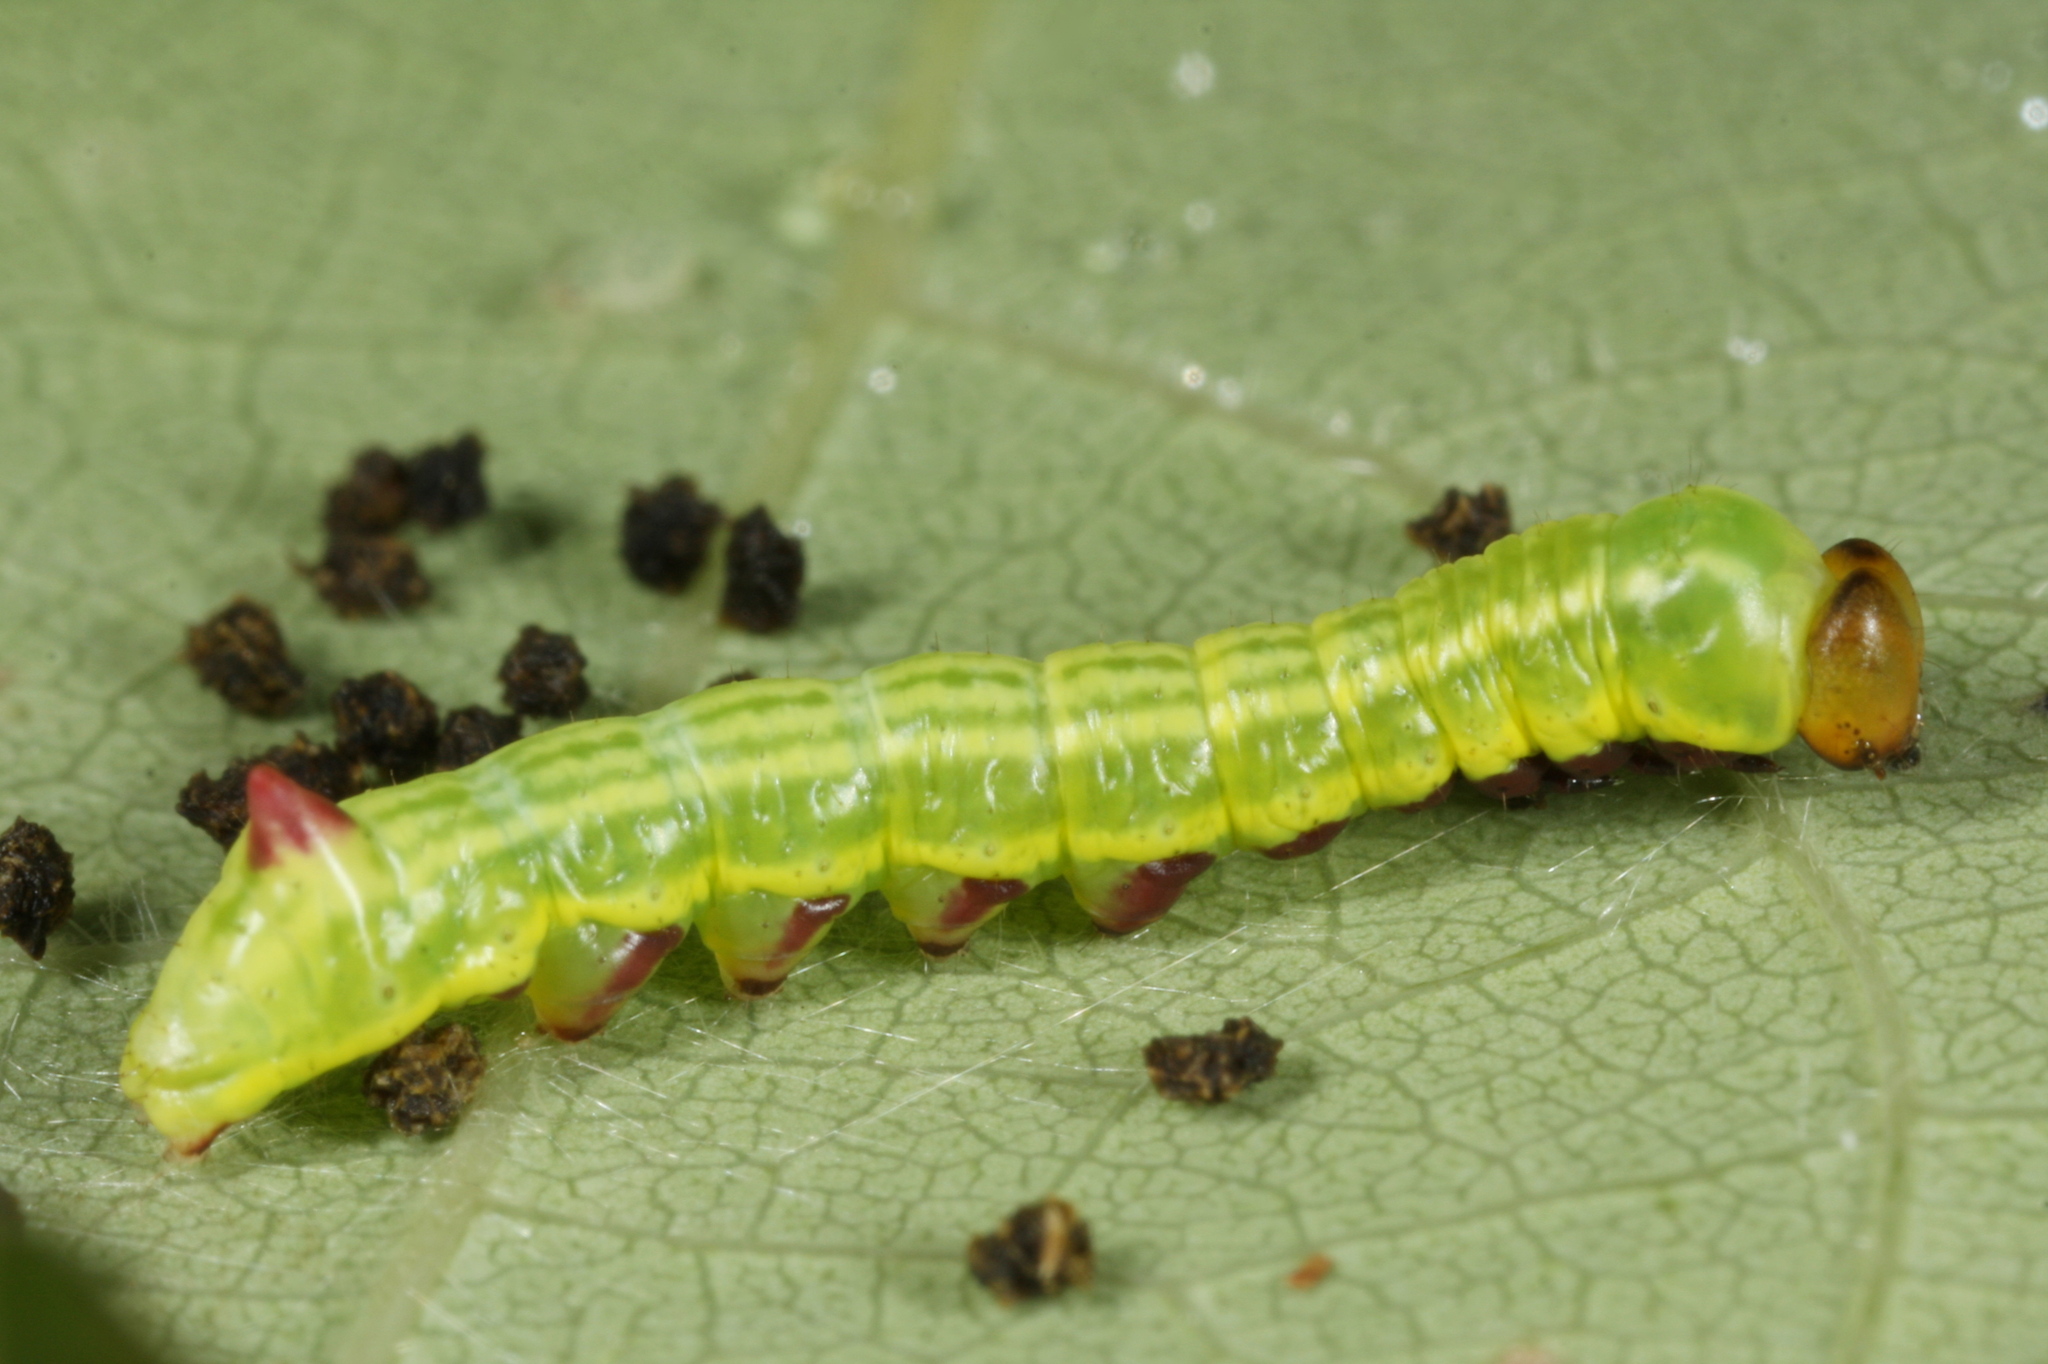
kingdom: Animalia
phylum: Arthropoda
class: Insecta
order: Lepidoptera
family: Notodontidae
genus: Pheosia
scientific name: Pheosia tremula
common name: Swallow prominent
